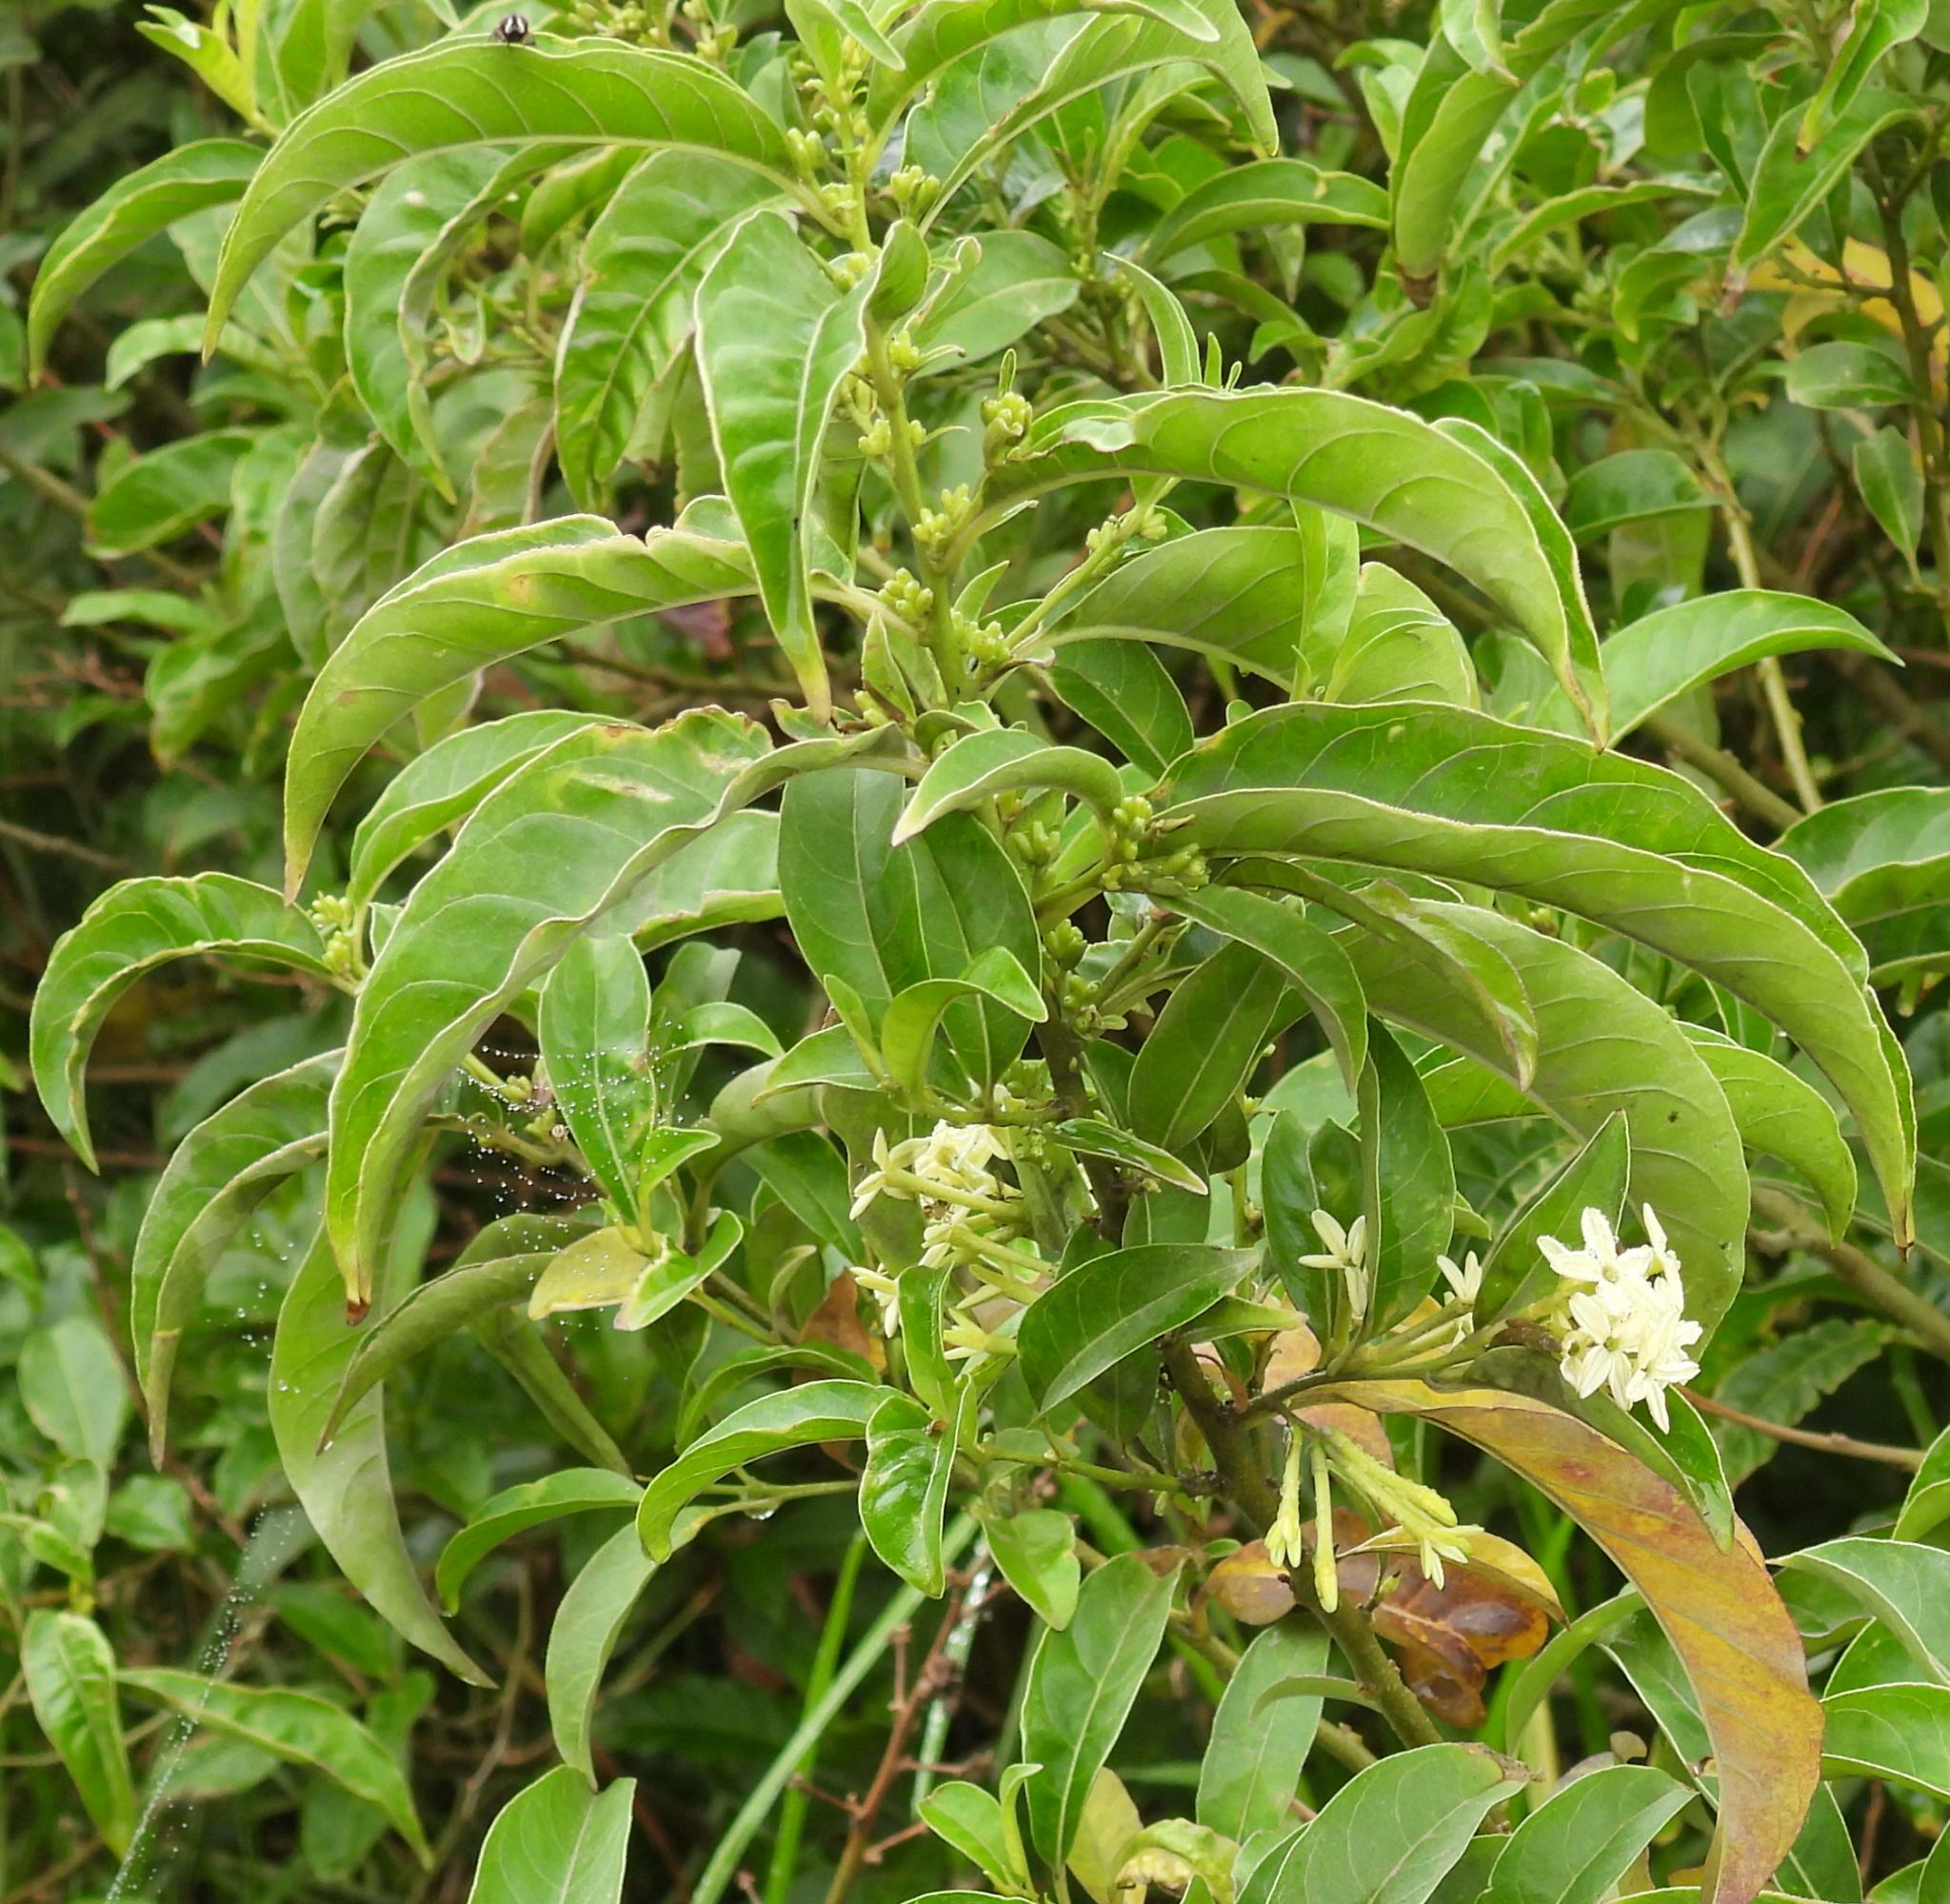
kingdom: Plantae
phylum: Tracheophyta
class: Magnoliopsida
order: Solanales
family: Solanaceae
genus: Cestrum
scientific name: Cestrum laevigatum
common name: Inkberry
